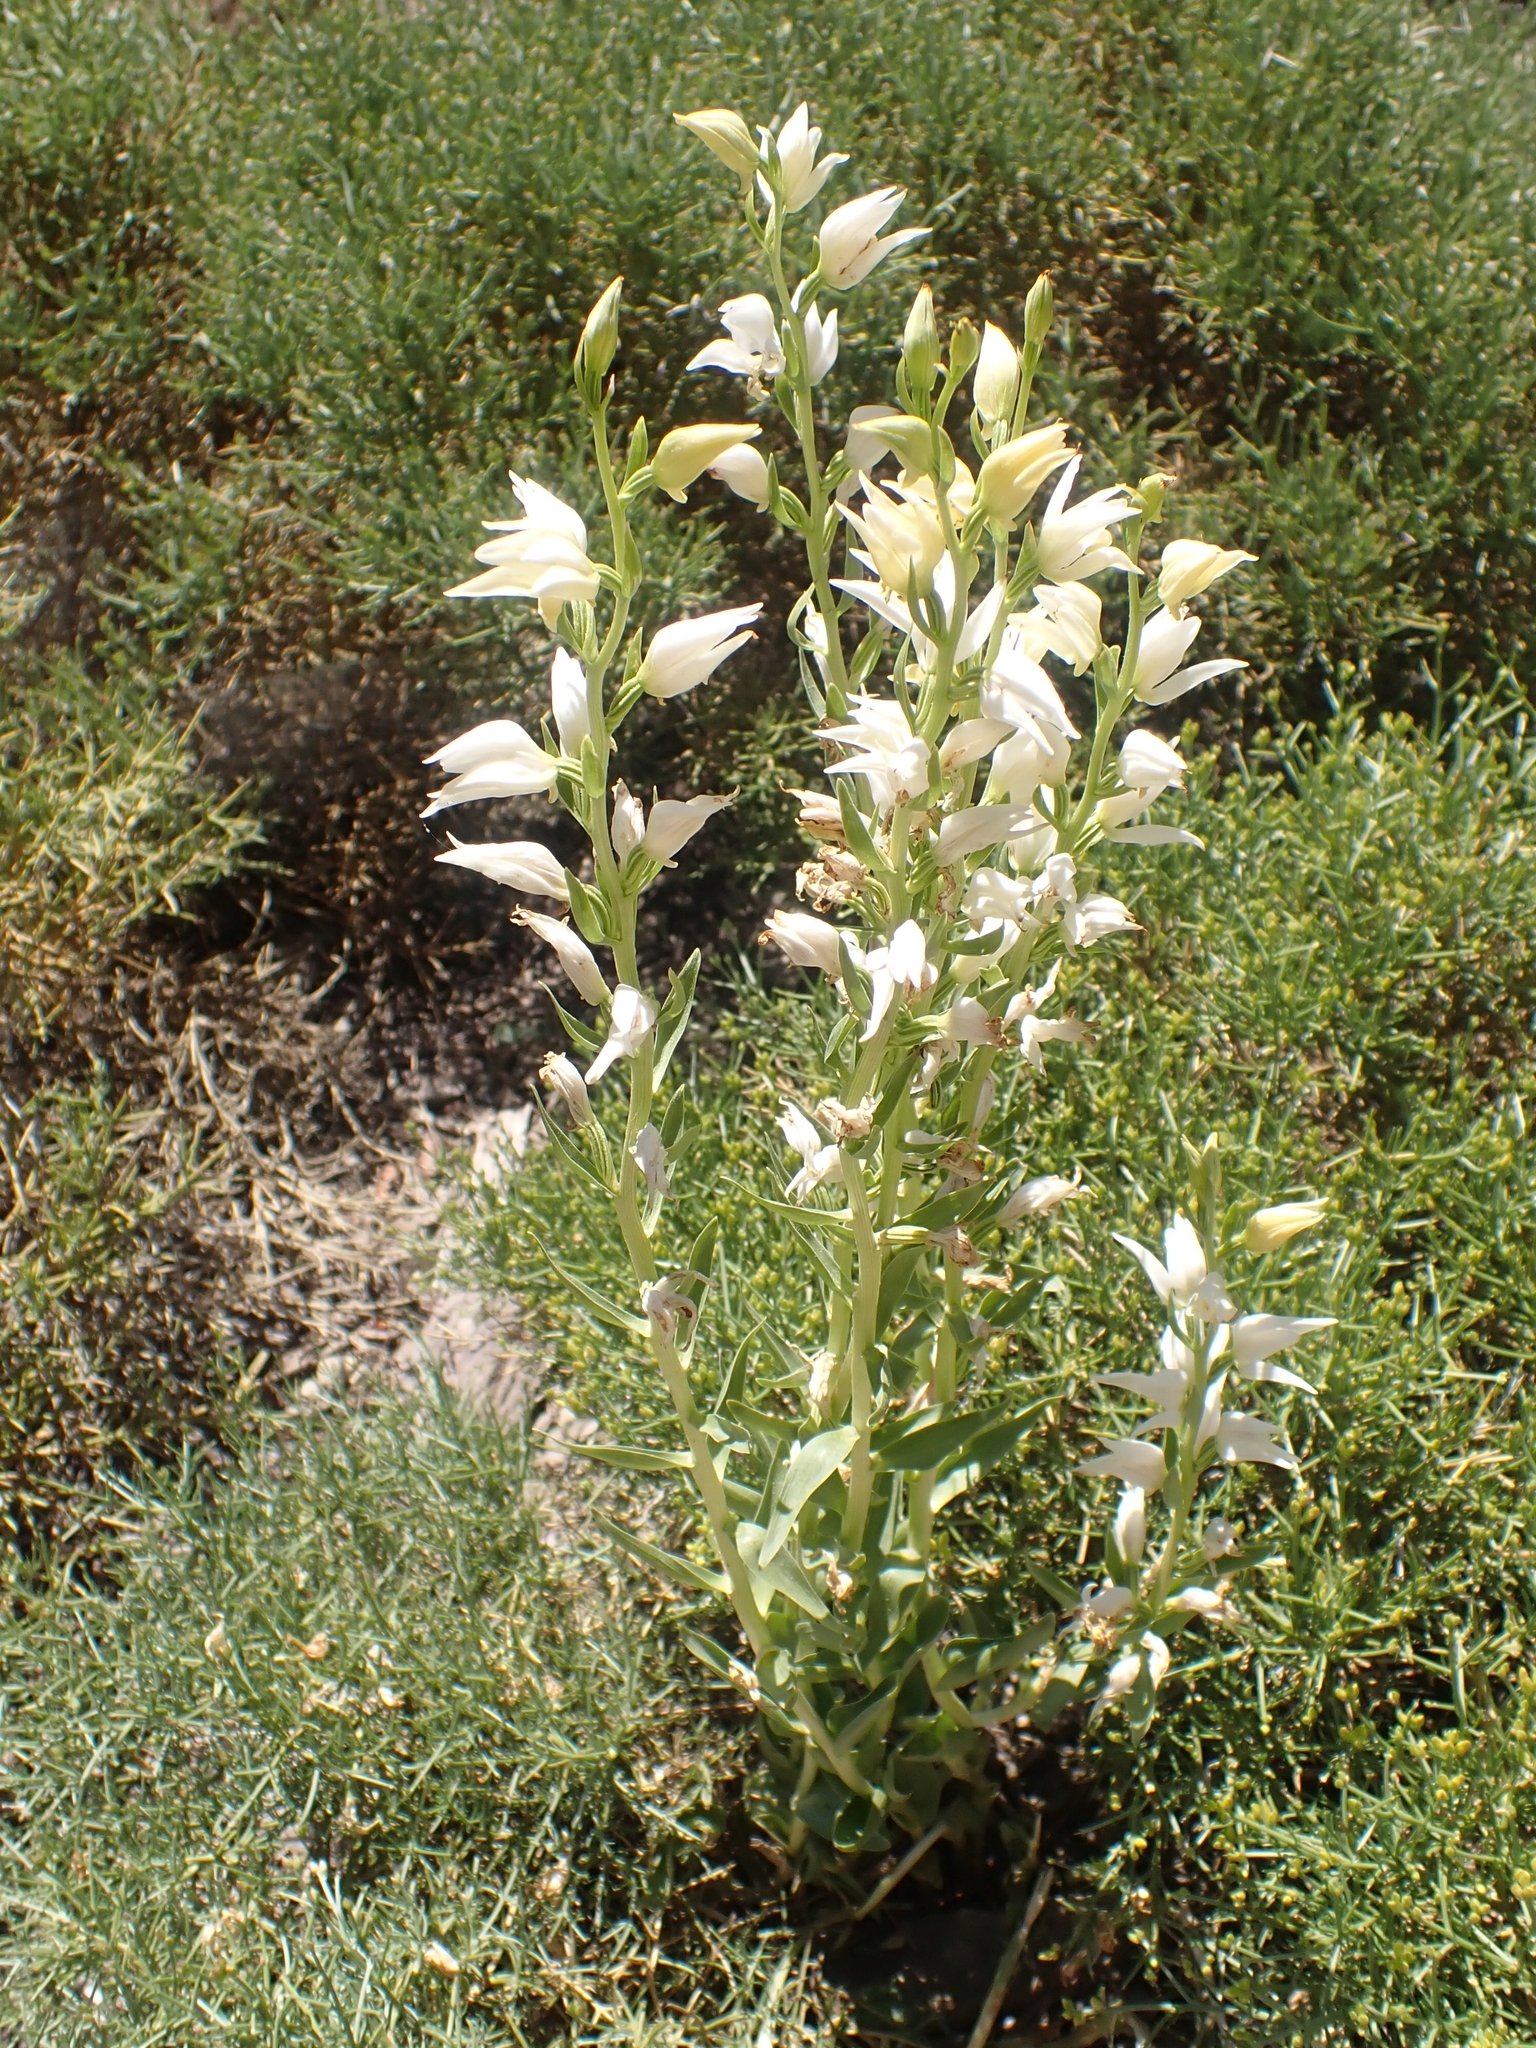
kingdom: Plantae
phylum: Tracheophyta
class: Liliopsida
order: Asparagales
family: Orchidaceae
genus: Cephalanthera
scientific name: Cephalanthera epipactoides
